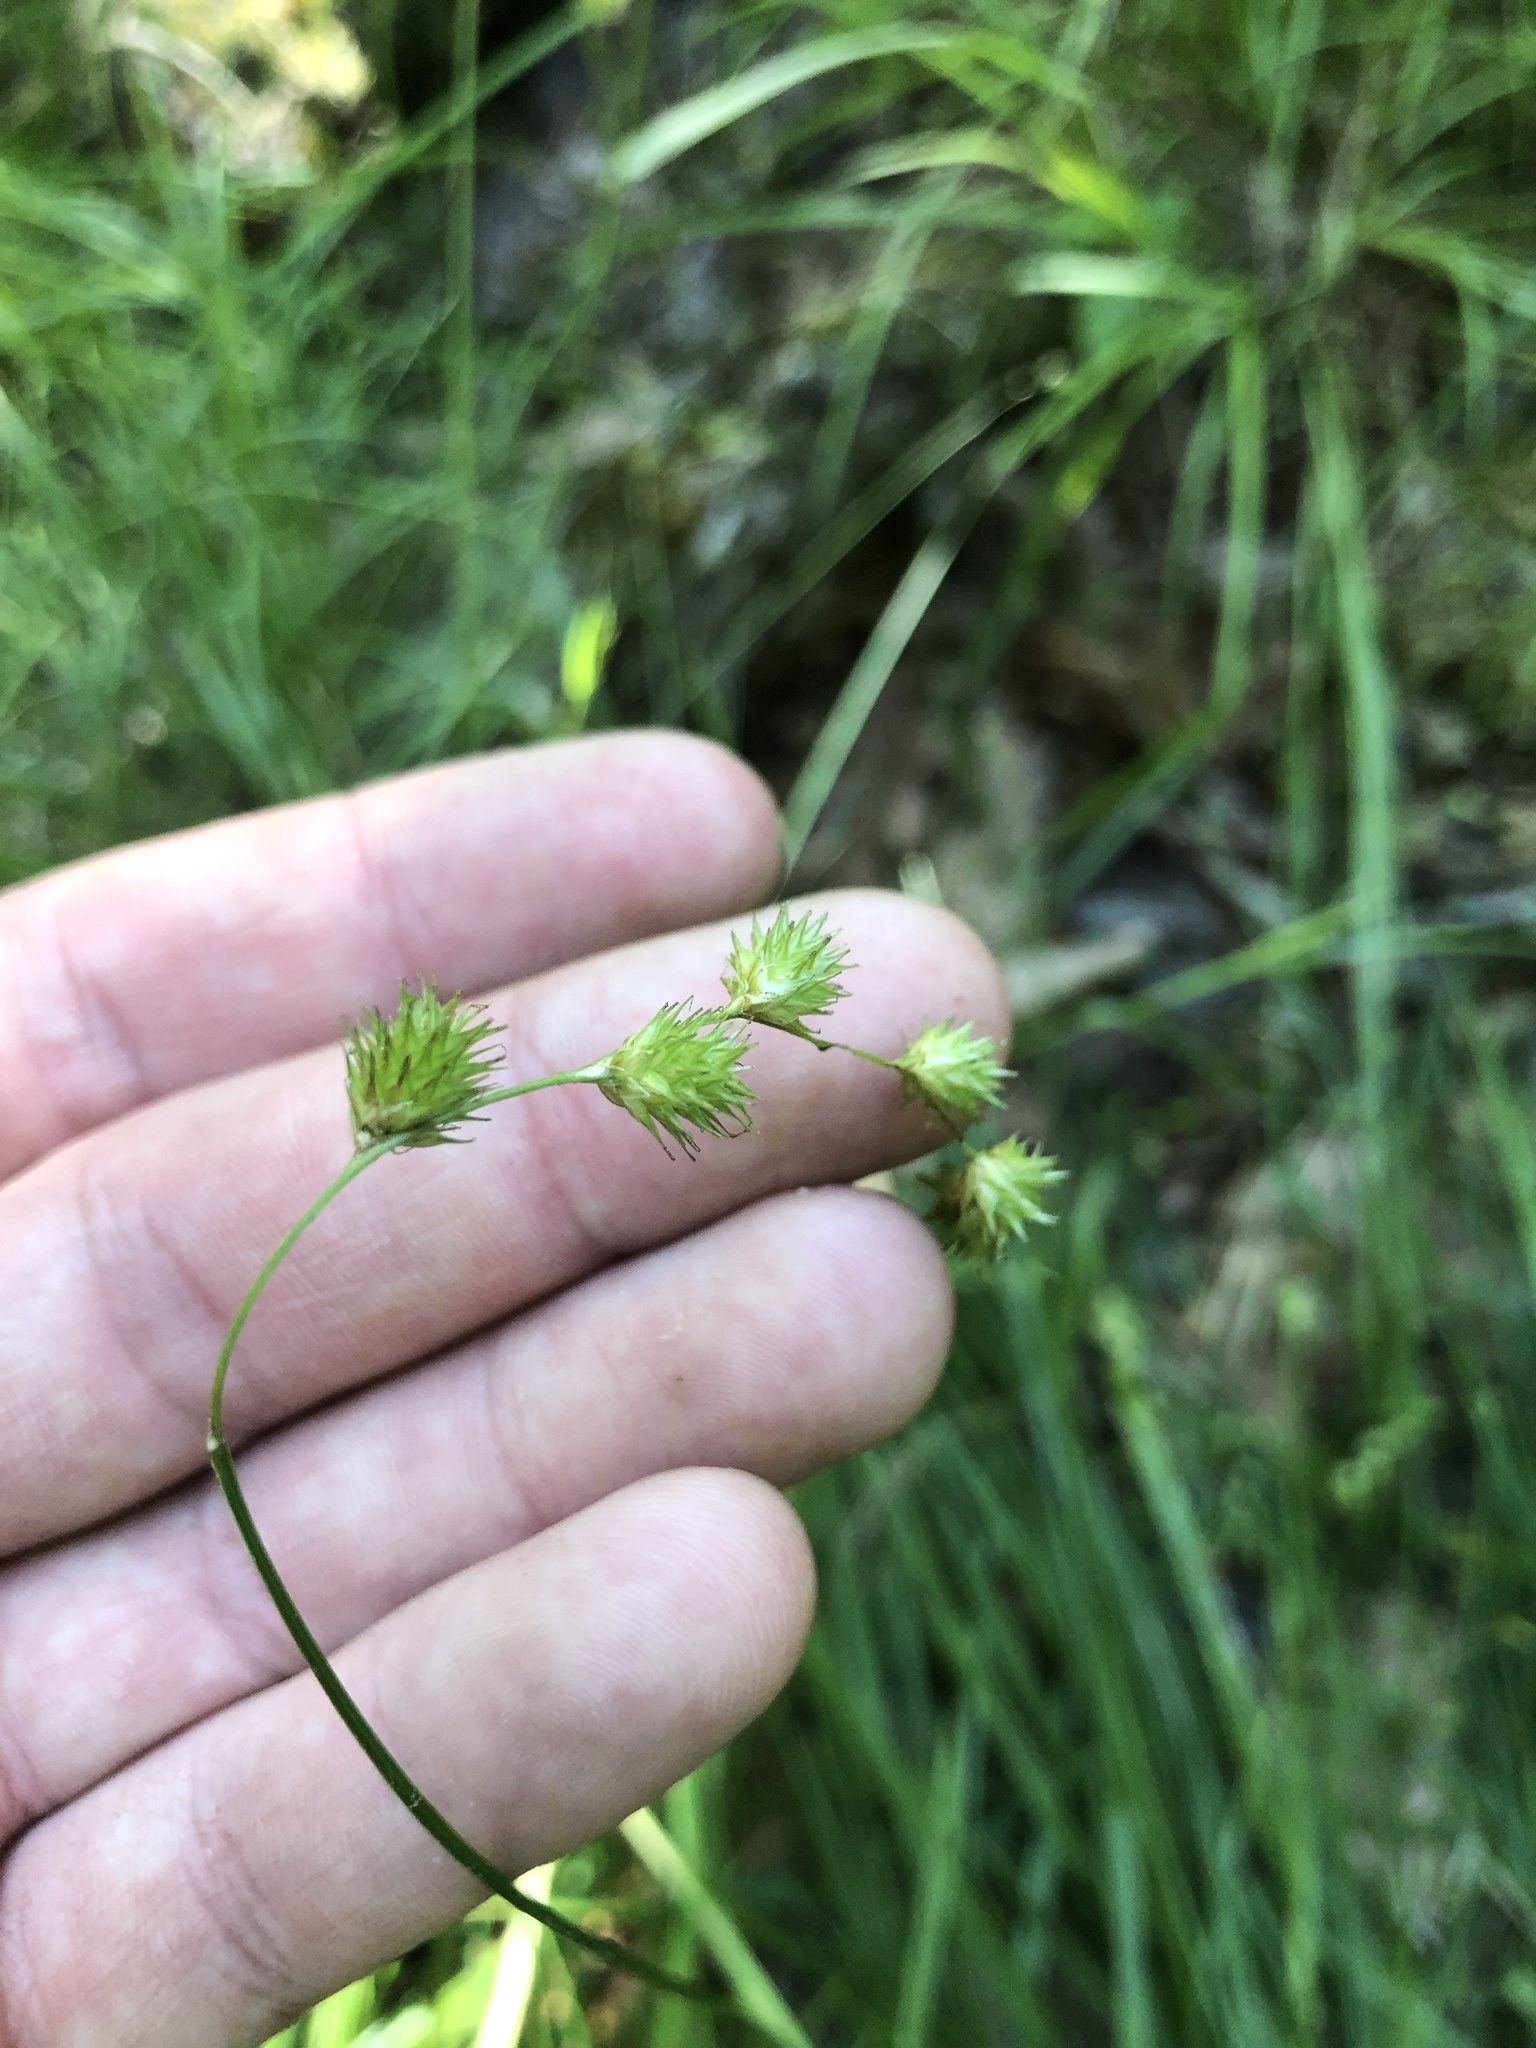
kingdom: Plantae
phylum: Tracheophyta
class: Liliopsida
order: Poales
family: Cyperaceae
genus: Carex
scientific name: Carex projecta
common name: Loose-headed oval sedge
